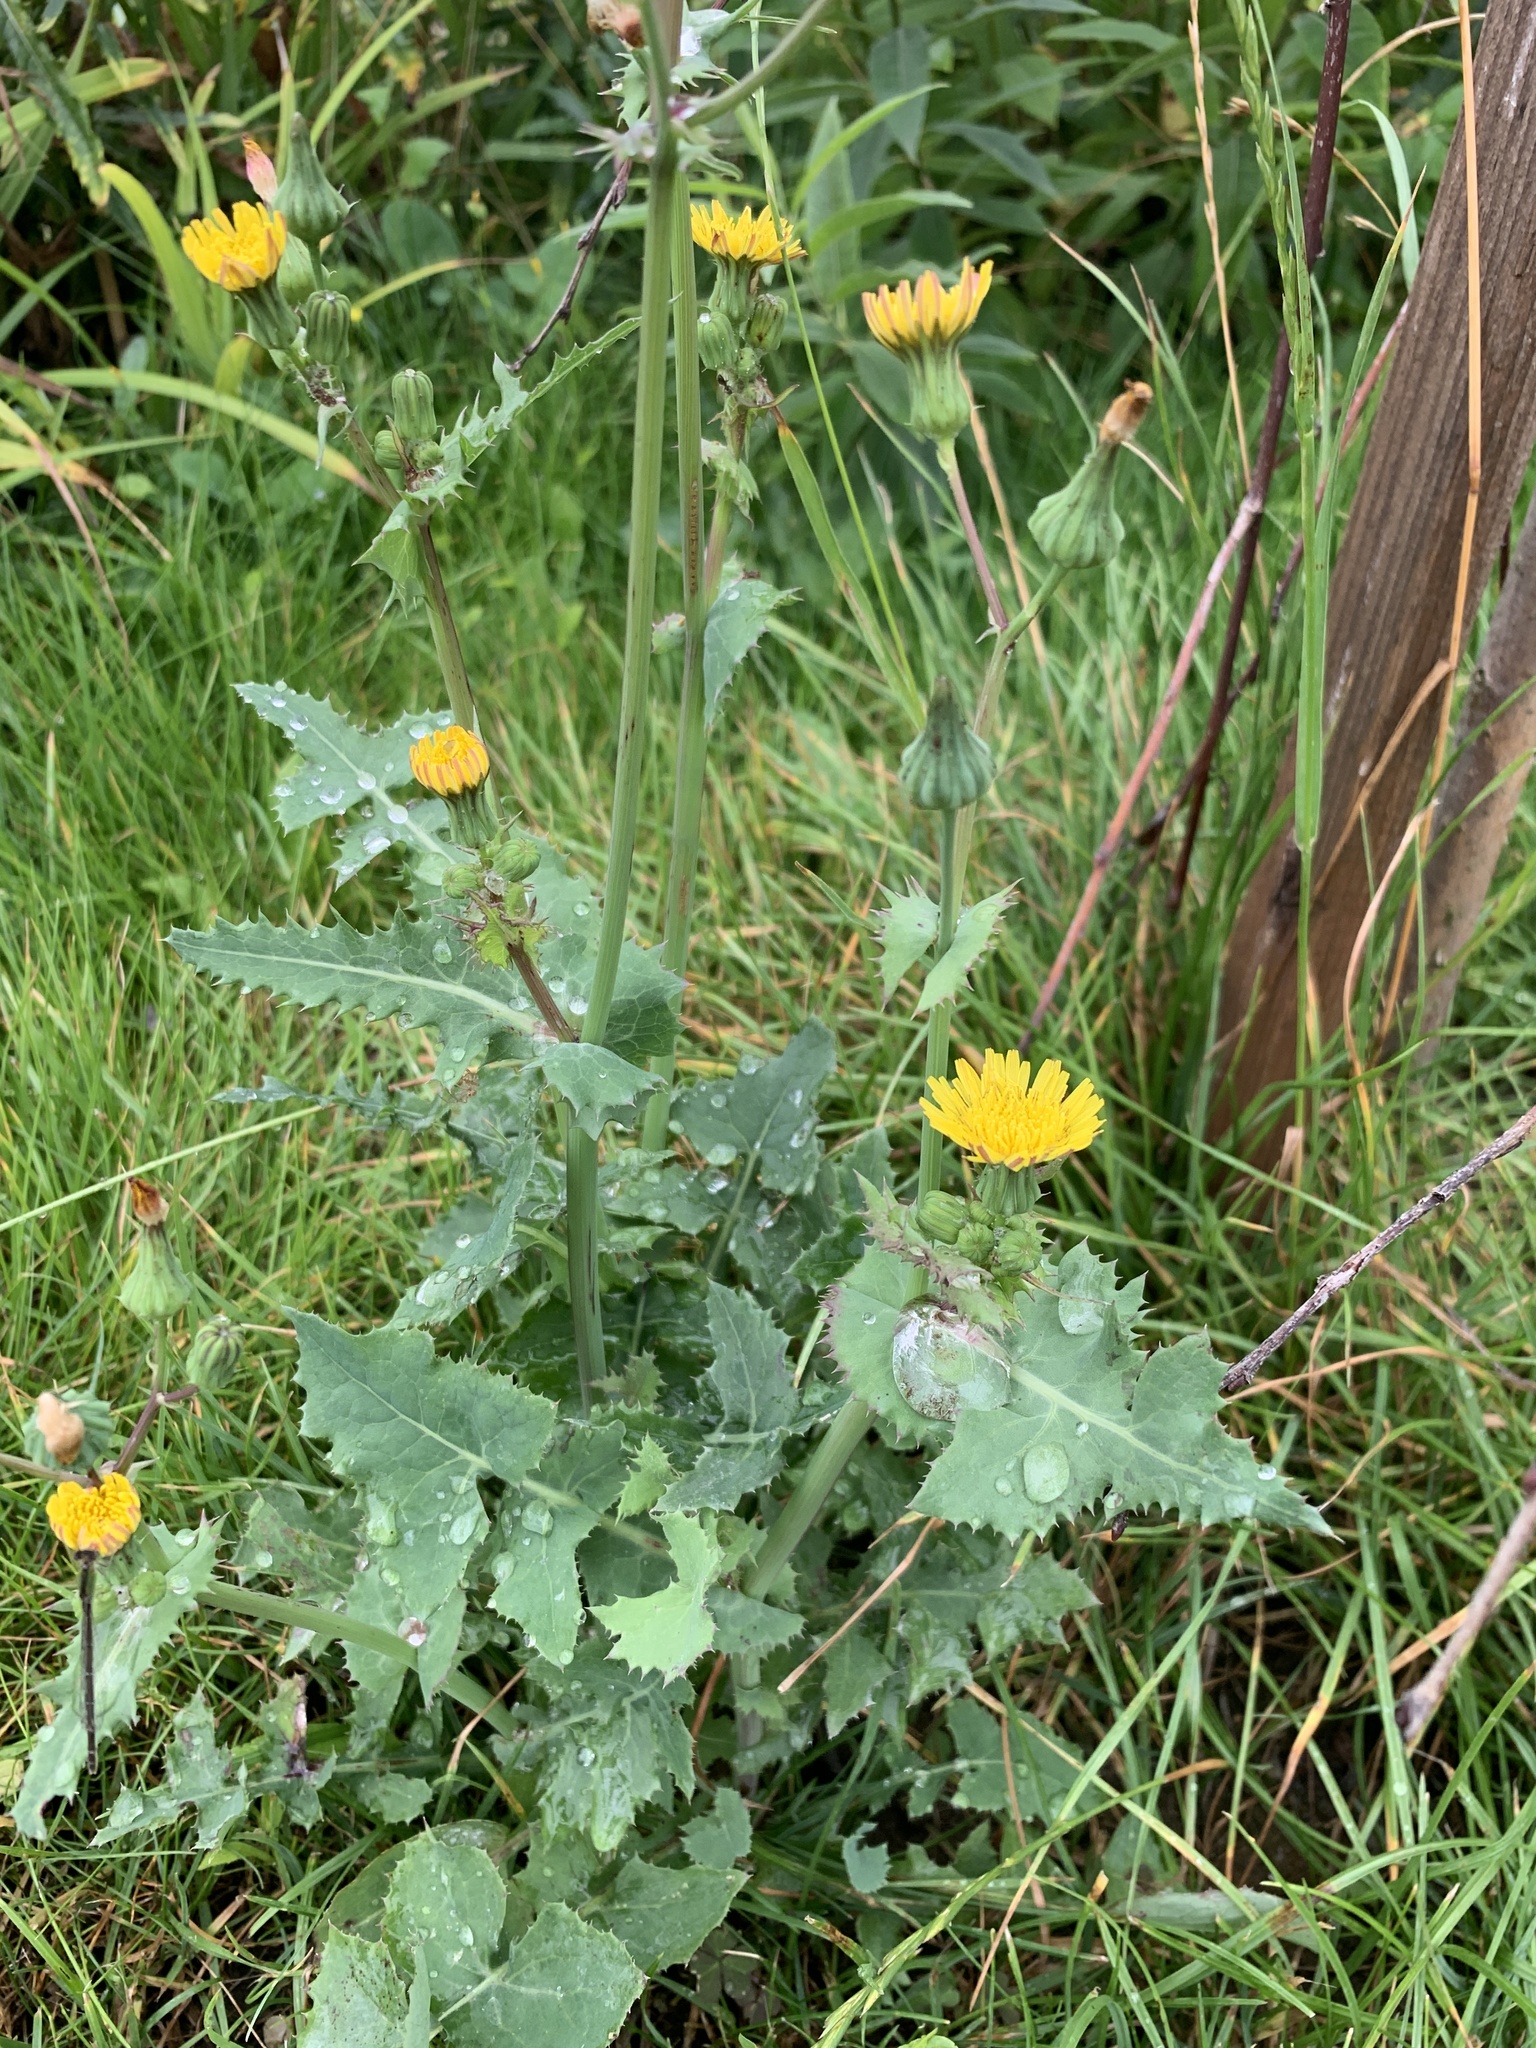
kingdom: Plantae
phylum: Tracheophyta
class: Magnoliopsida
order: Asterales
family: Asteraceae
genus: Sonchus
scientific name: Sonchus oleraceus
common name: Common sowthistle
